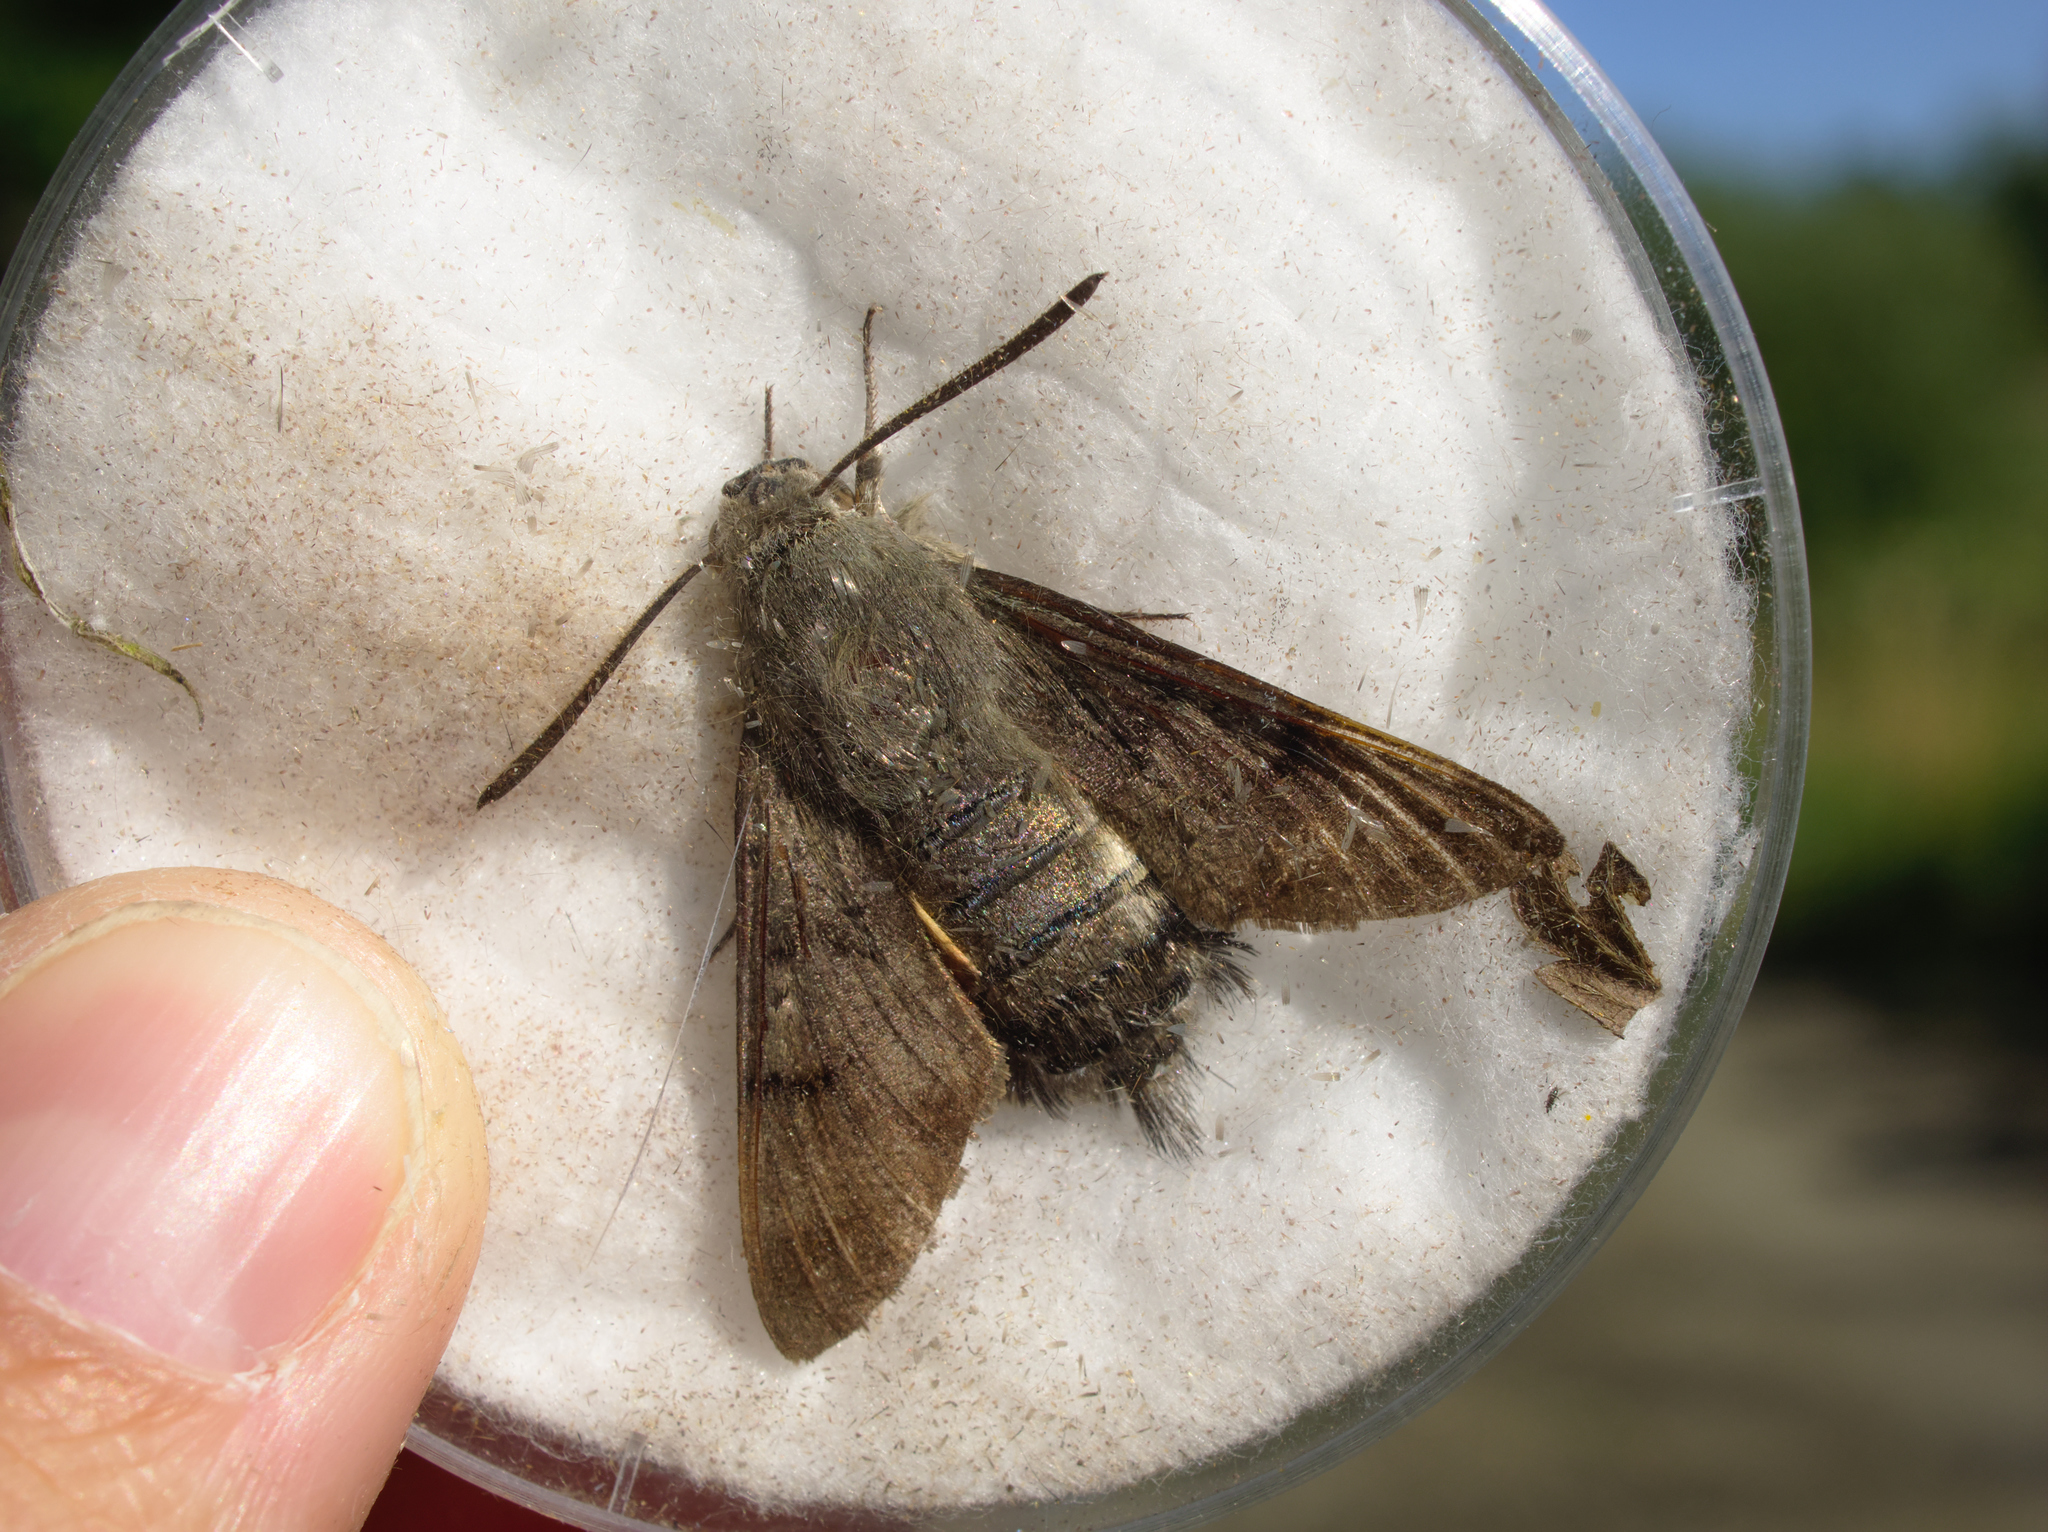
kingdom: Animalia
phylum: Arthropoda
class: Insecta
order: Lepidoptera
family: Sphingidae
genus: Macroglossum
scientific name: Macroglossum stellatarum
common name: Humming-bird hawk-moth
